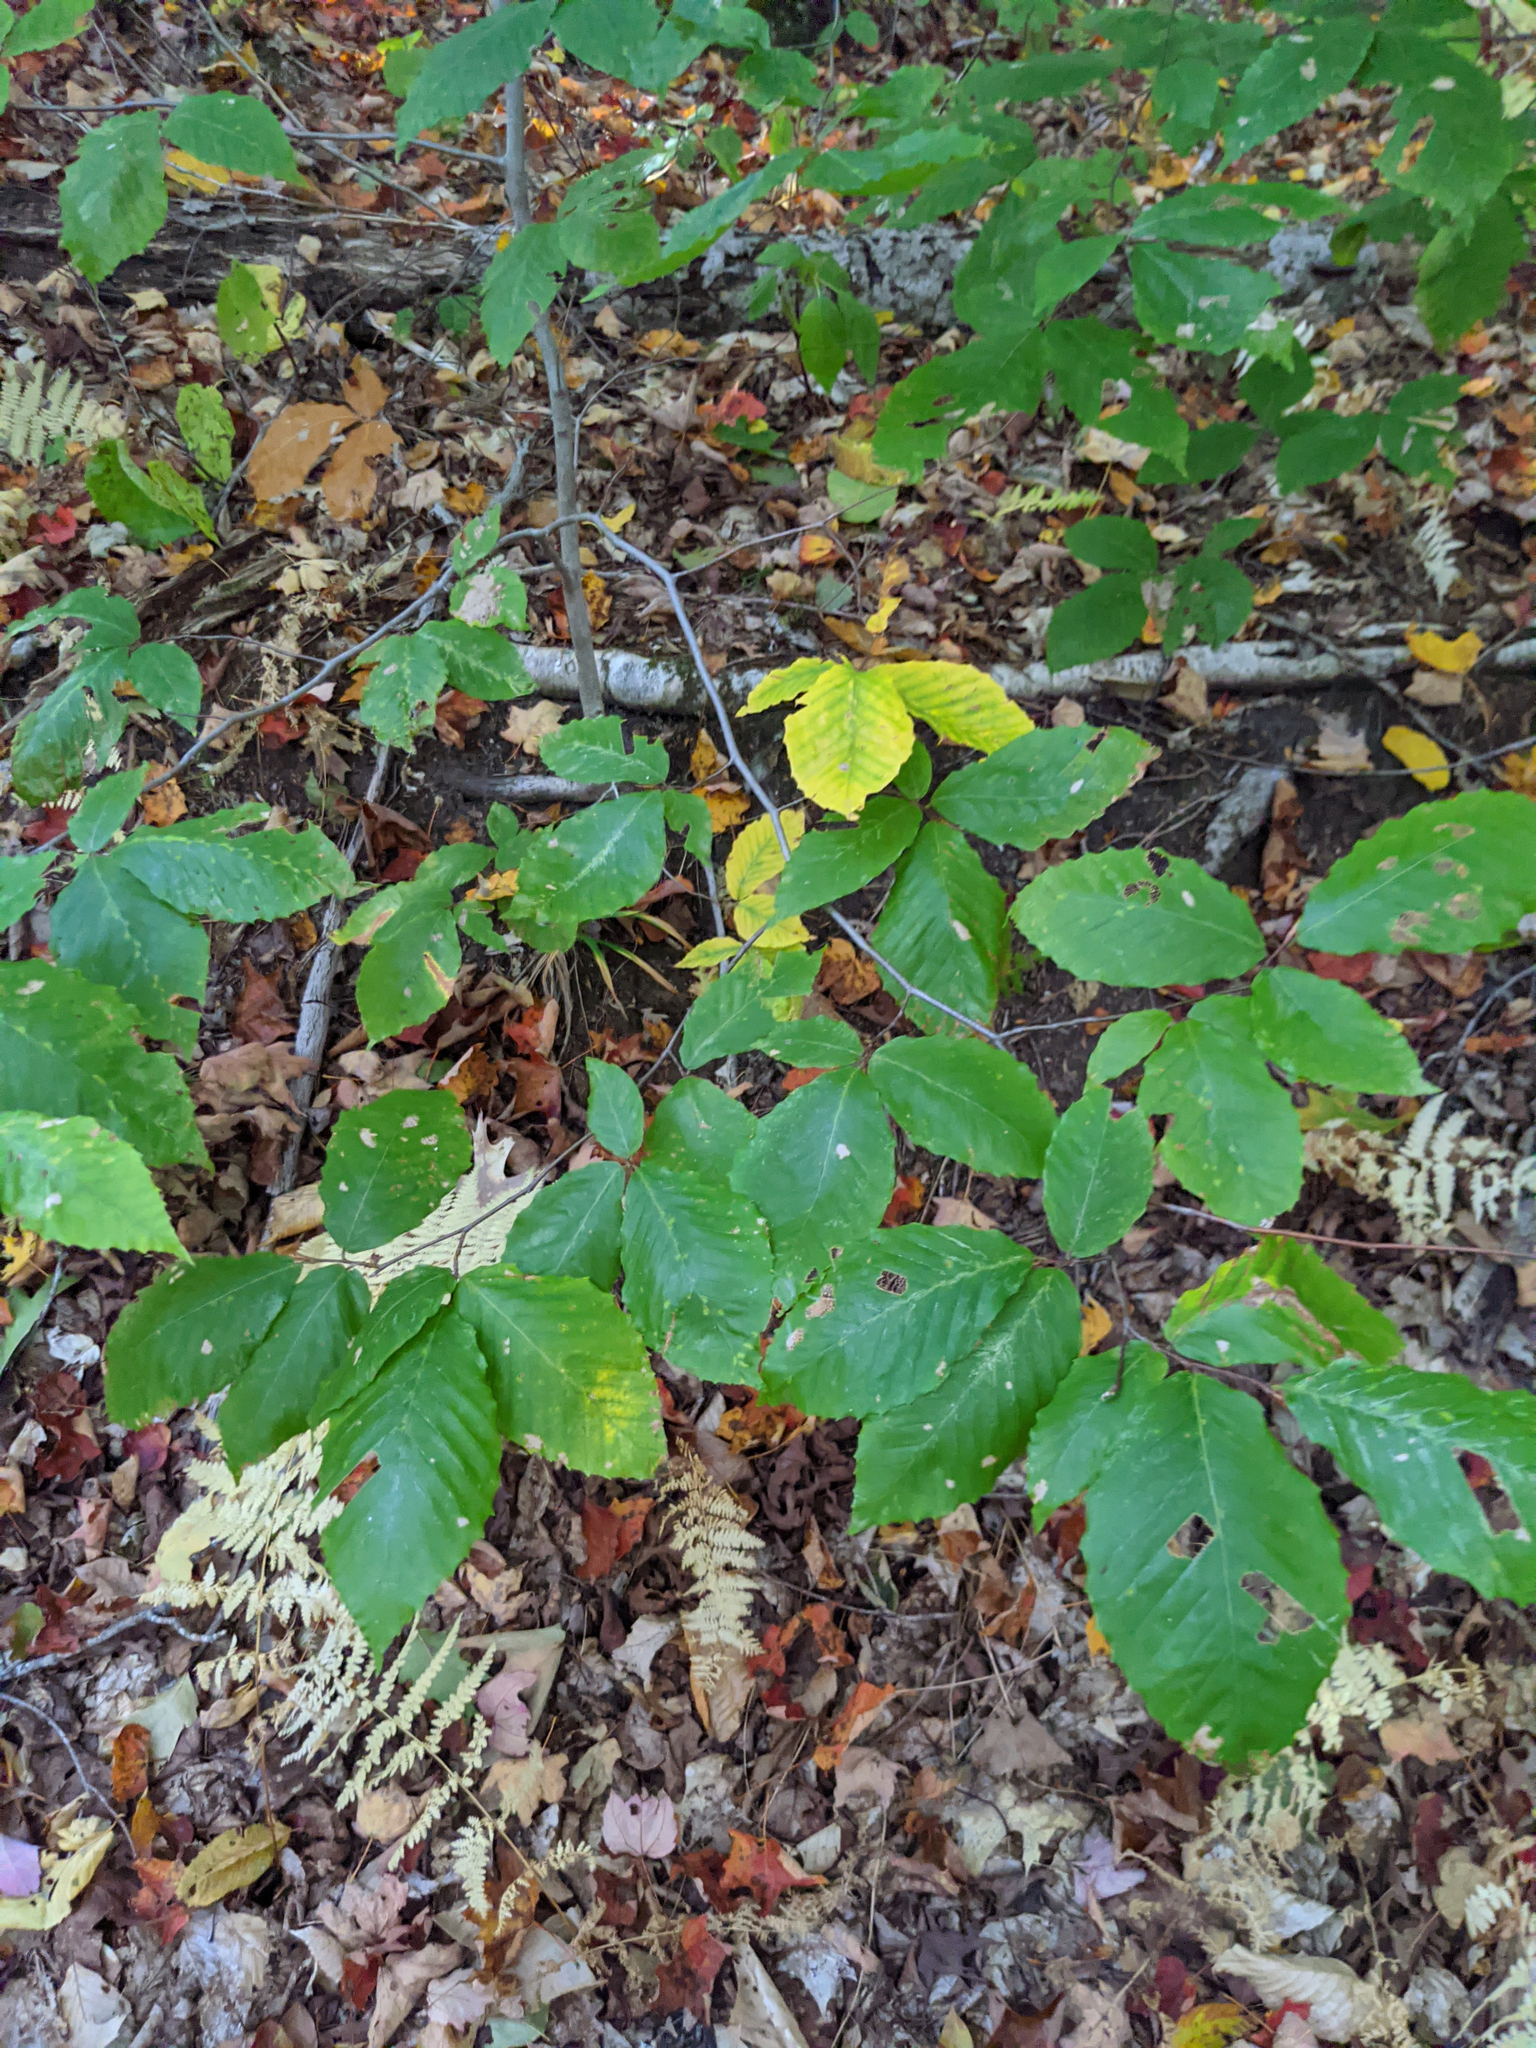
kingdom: Plantae
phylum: Tracheophyta
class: Magnoliopsida
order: Fagales
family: Fagaceae
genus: Fagus
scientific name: Fagus grandifolia
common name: American beech
